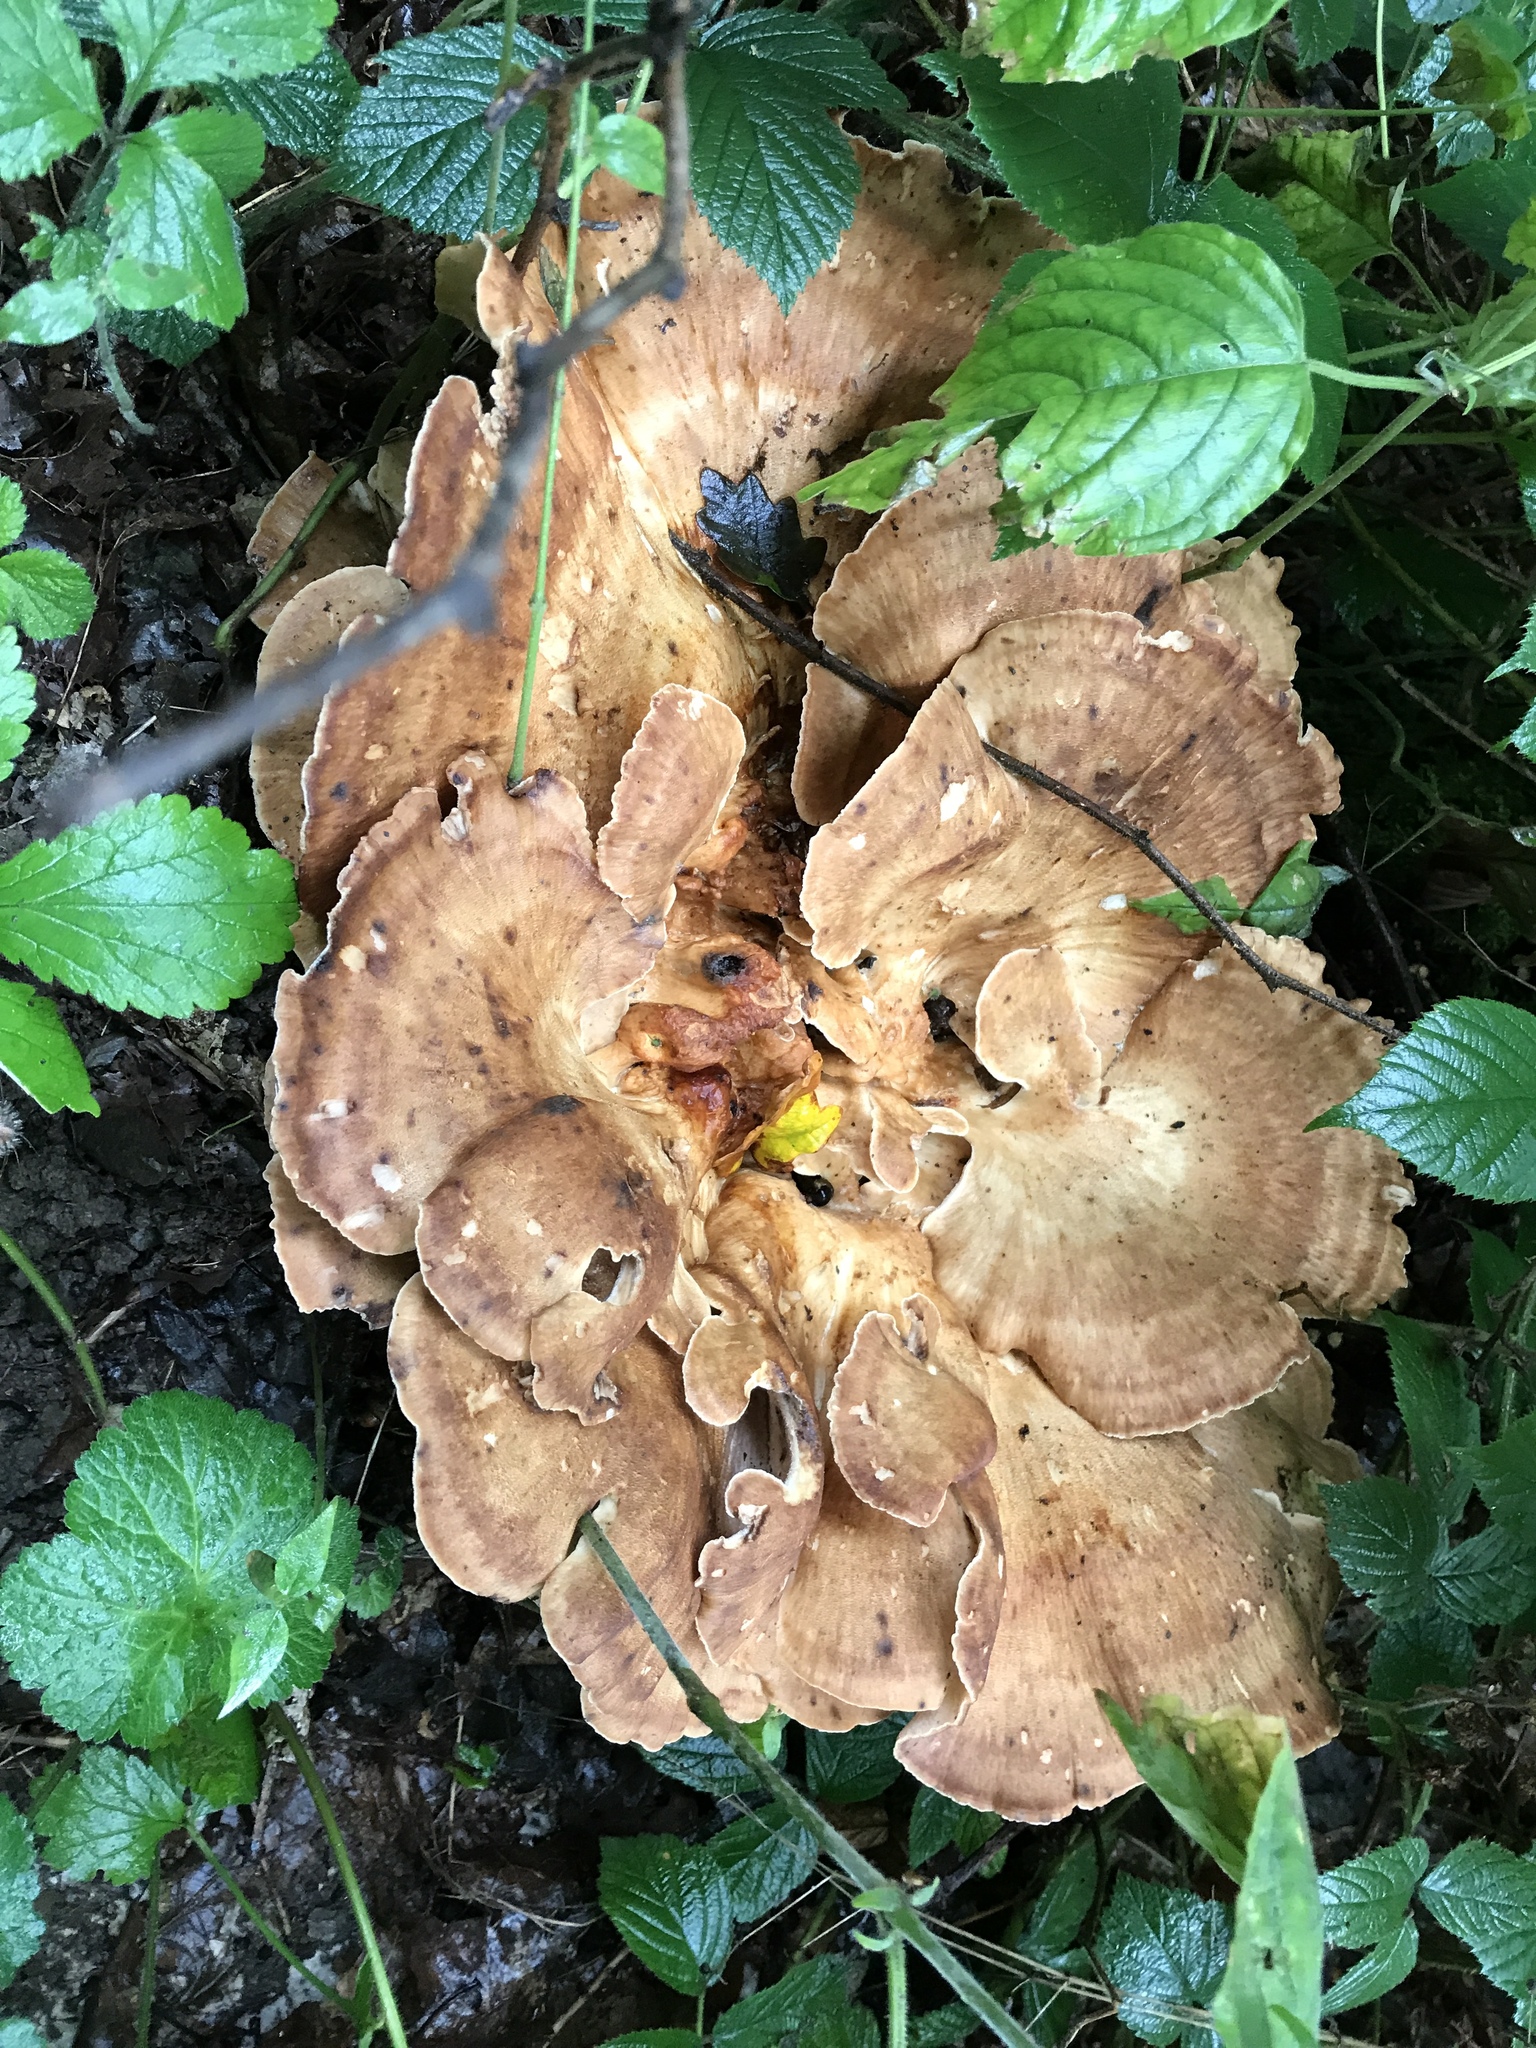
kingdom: Fungi
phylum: Basidiomycota
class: Agaricomycetes
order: Polyporales
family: Meripilaceae
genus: Meripilus
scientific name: Meripilus giganteus
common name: Giant polypore
